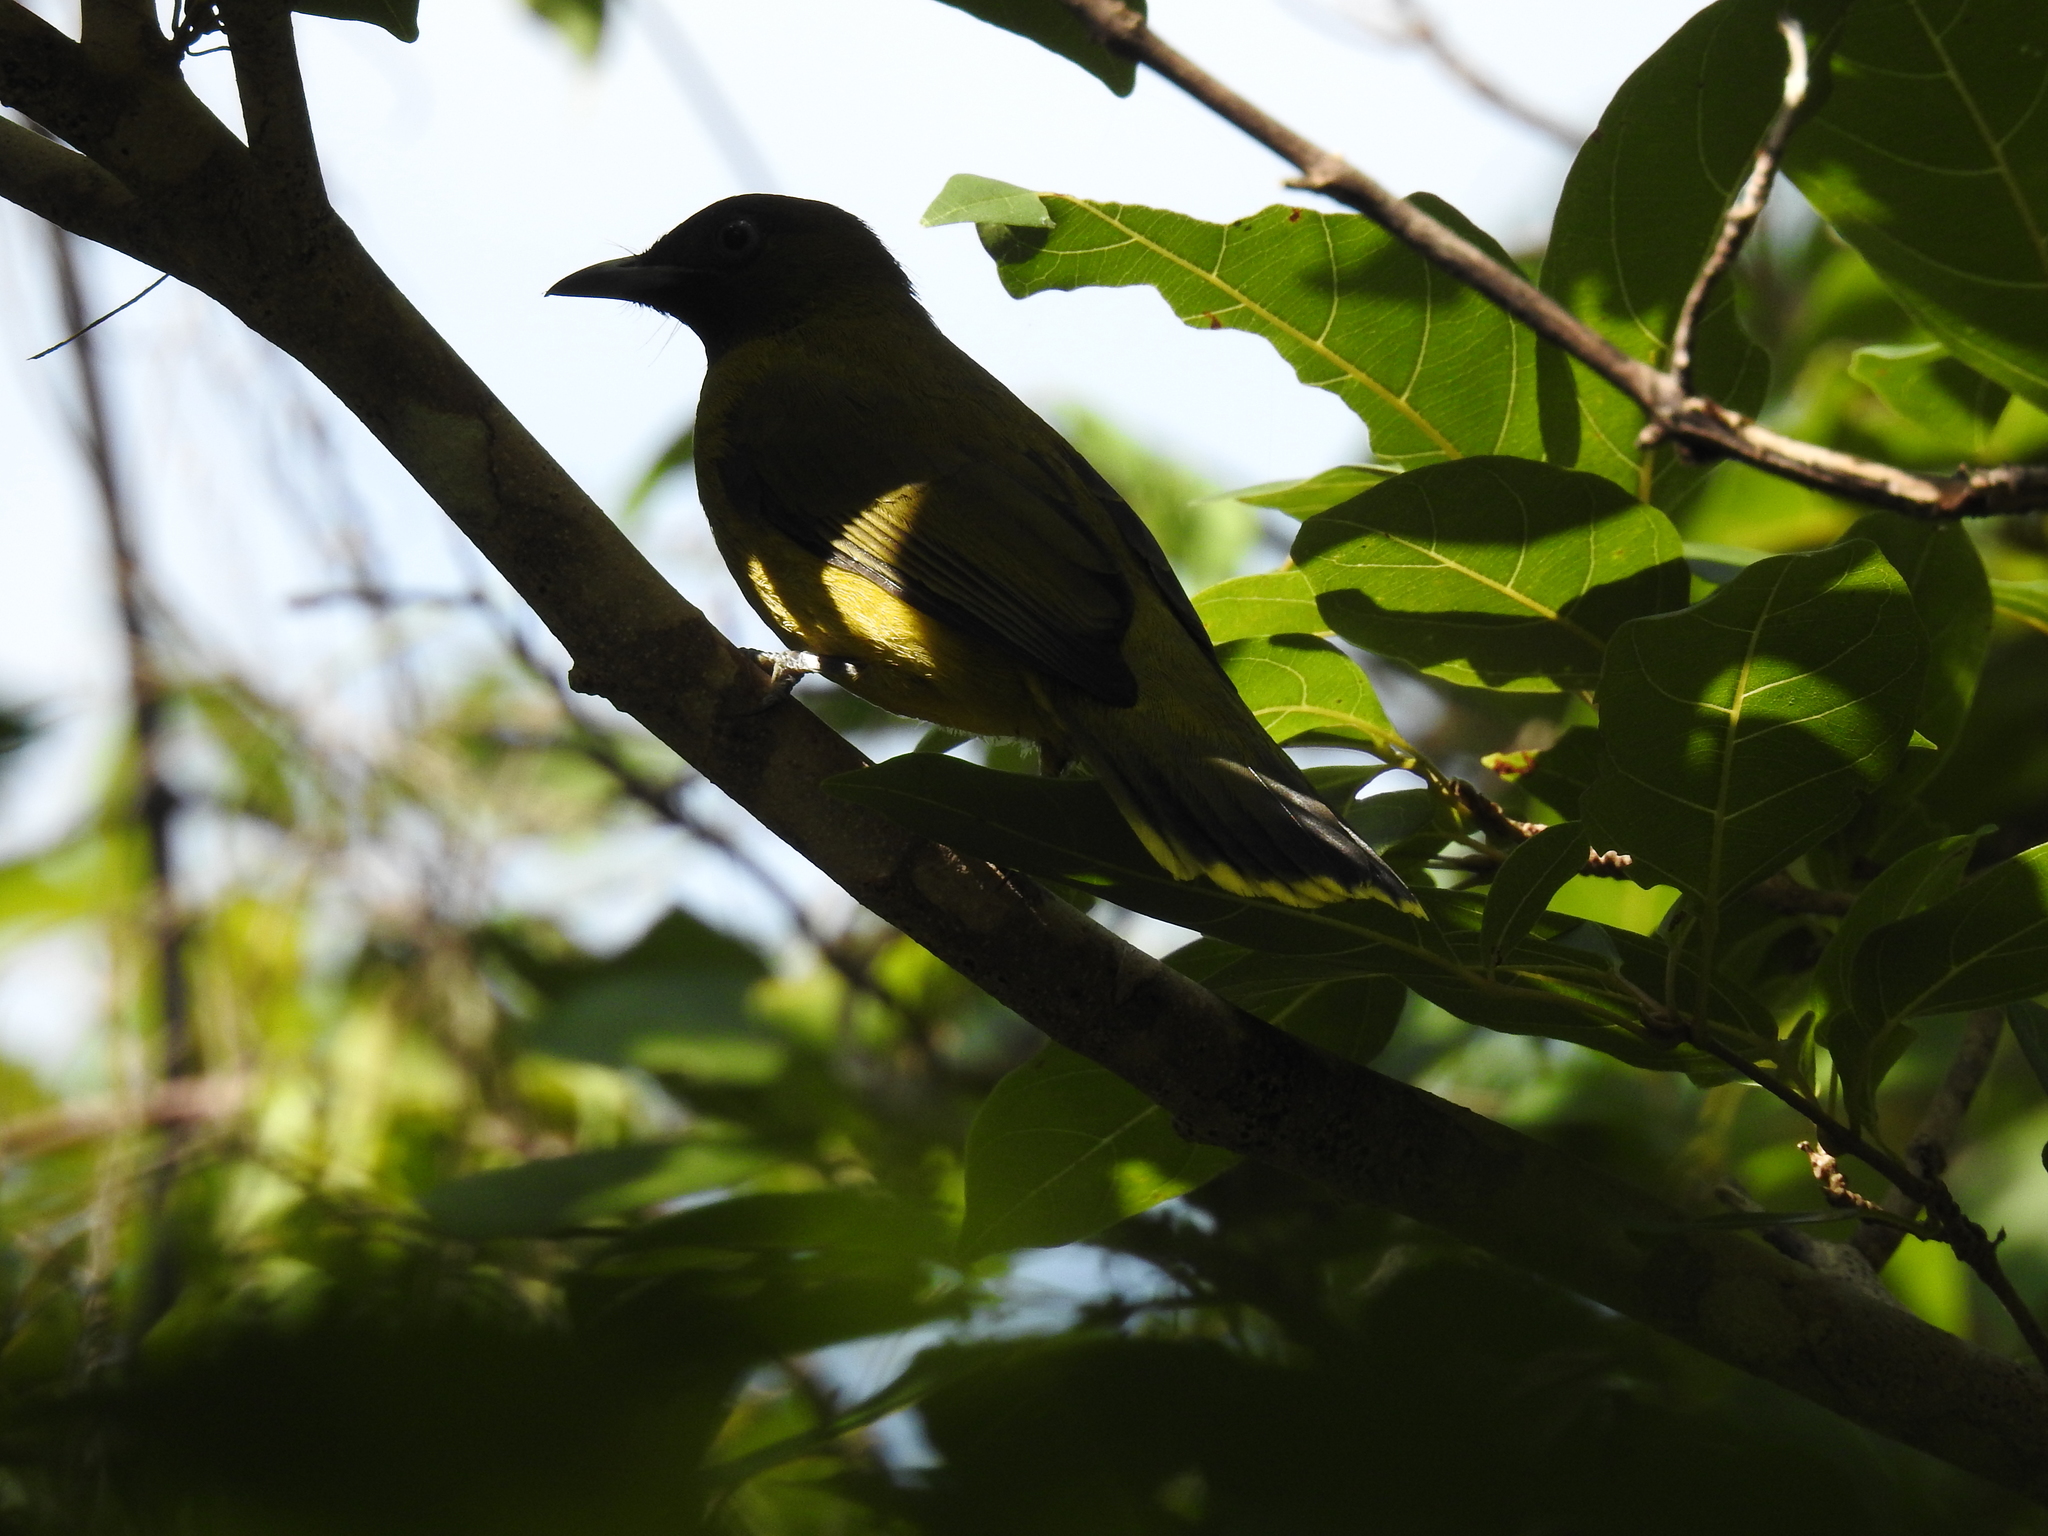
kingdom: Animalia
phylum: Chordata
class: Aves
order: Passeriformes
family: Pycnonotidae
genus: Microtarsus
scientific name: Microtarsus
